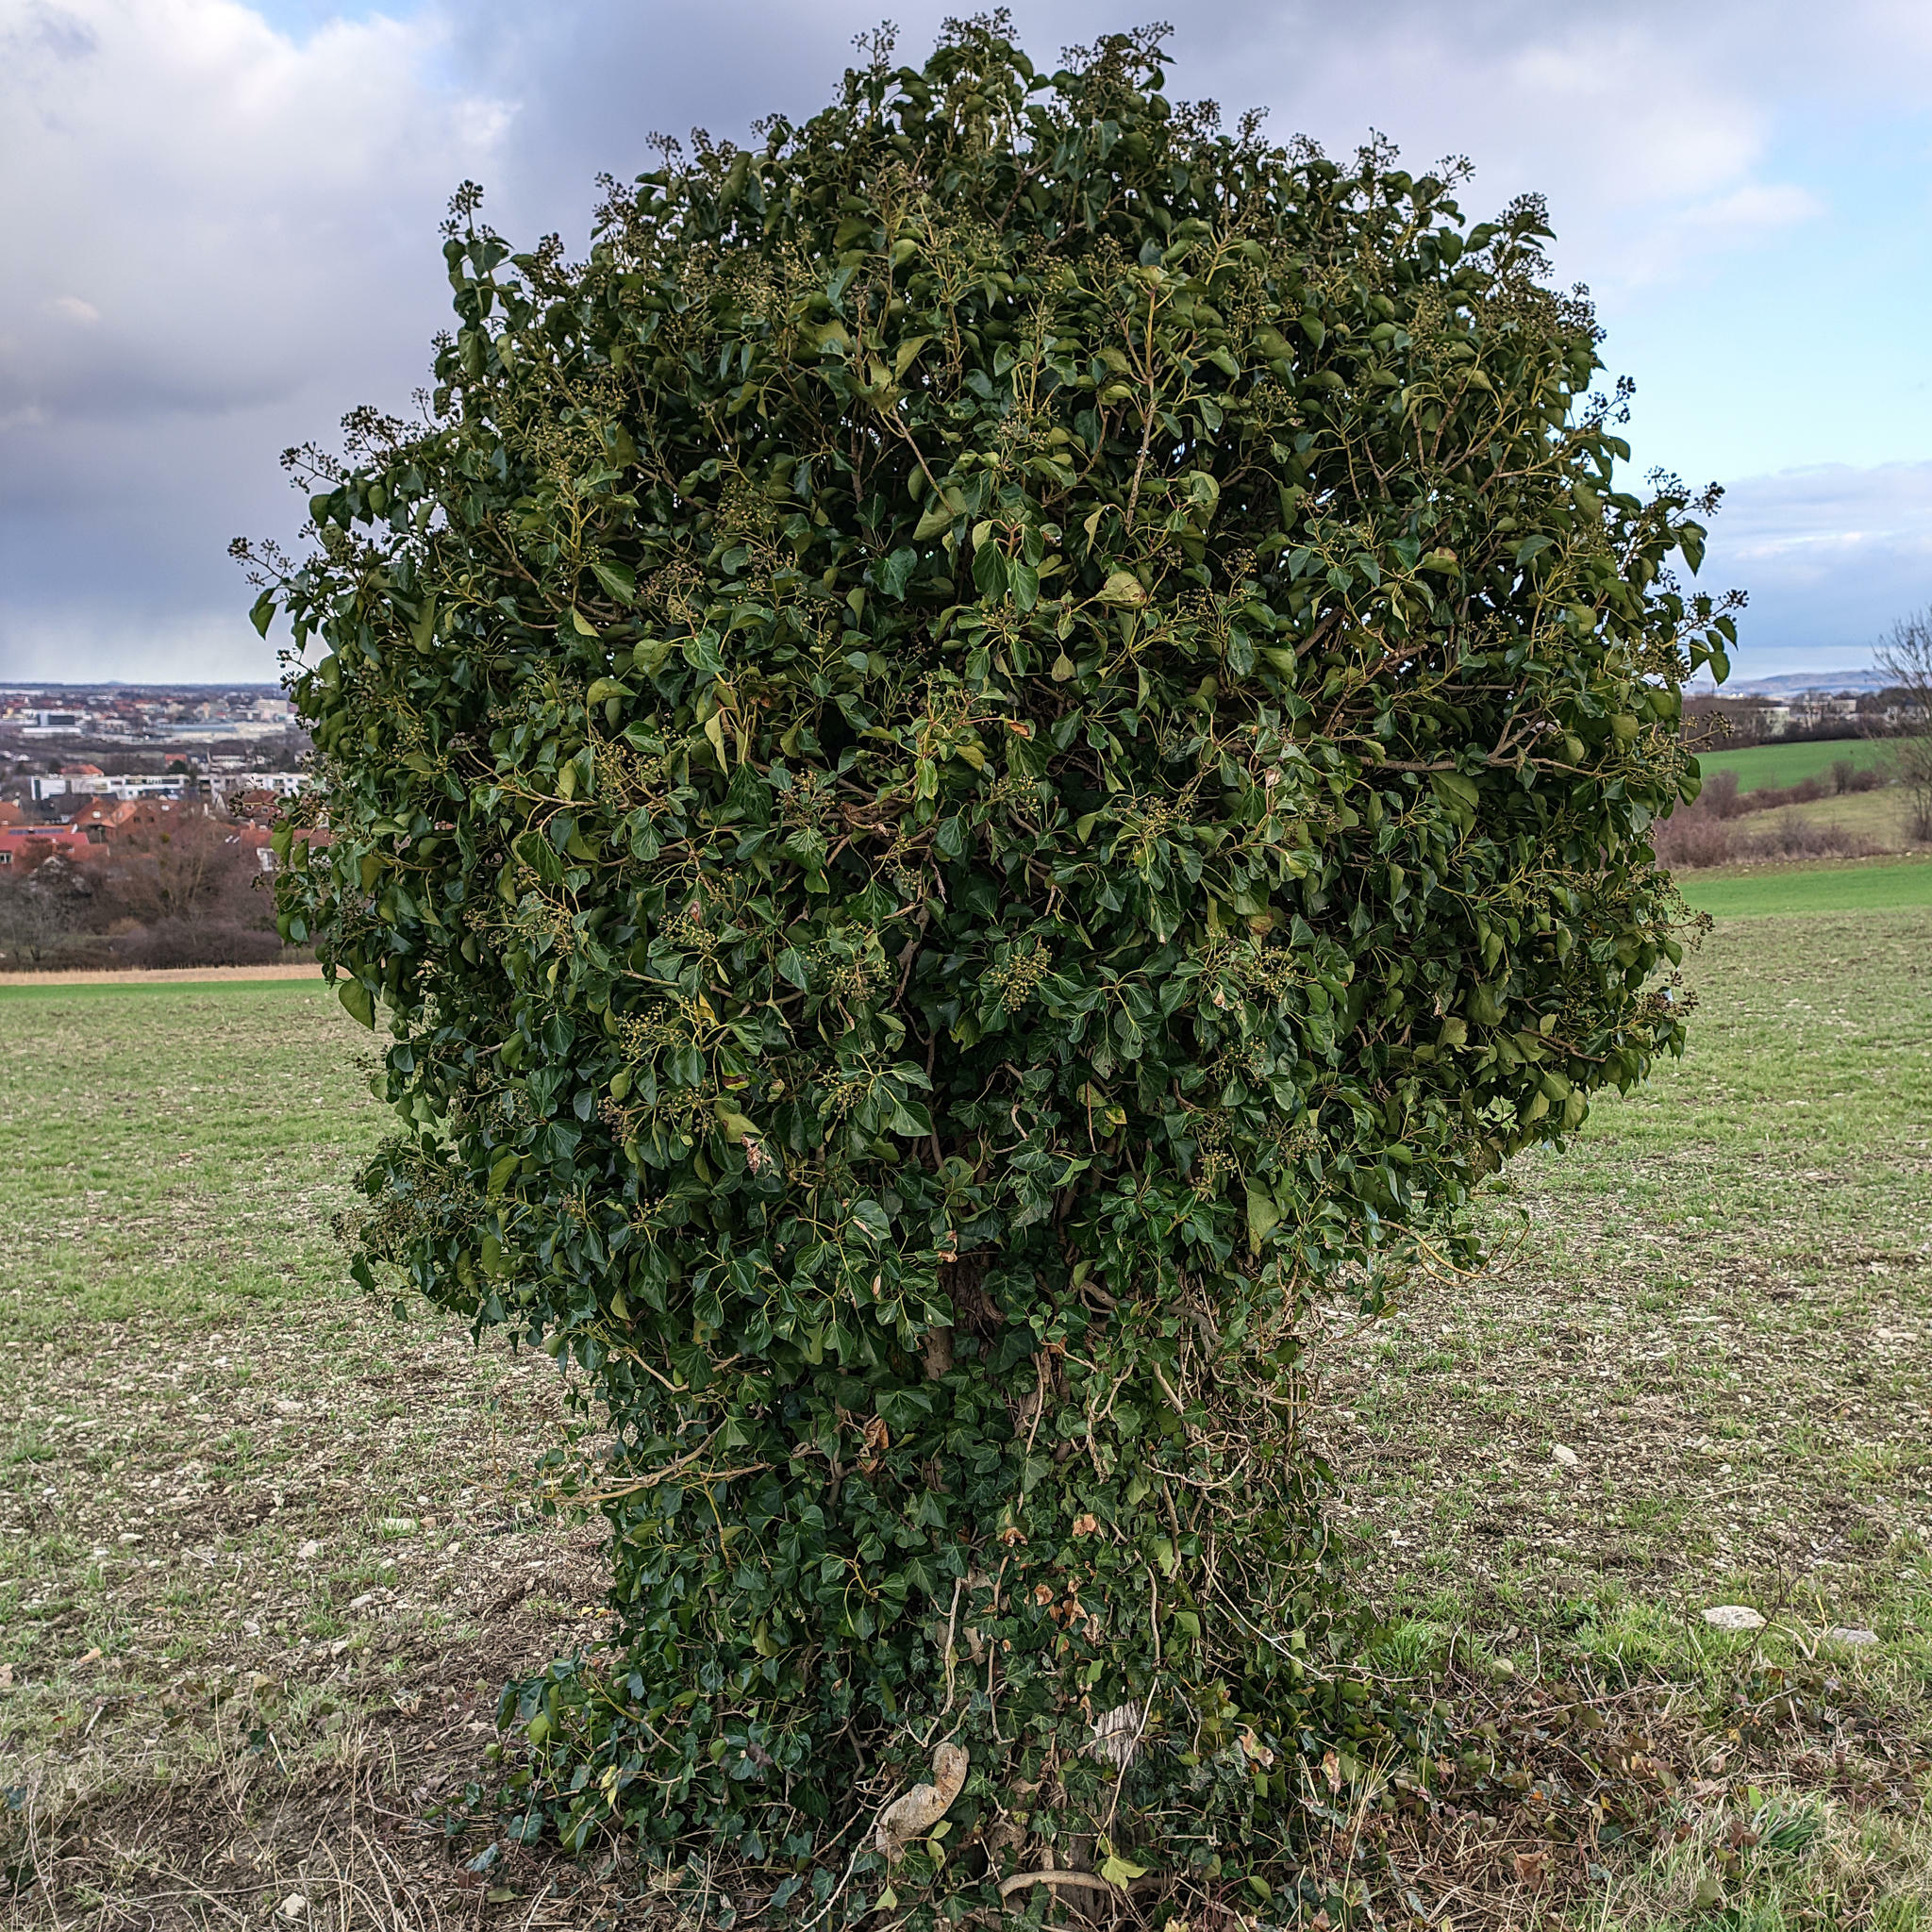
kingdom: Plantae
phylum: Tracheophyta
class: Magnoliopsida
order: Apiales
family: Araliaceae
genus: Hedera
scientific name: Hedera helix
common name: Ivy
